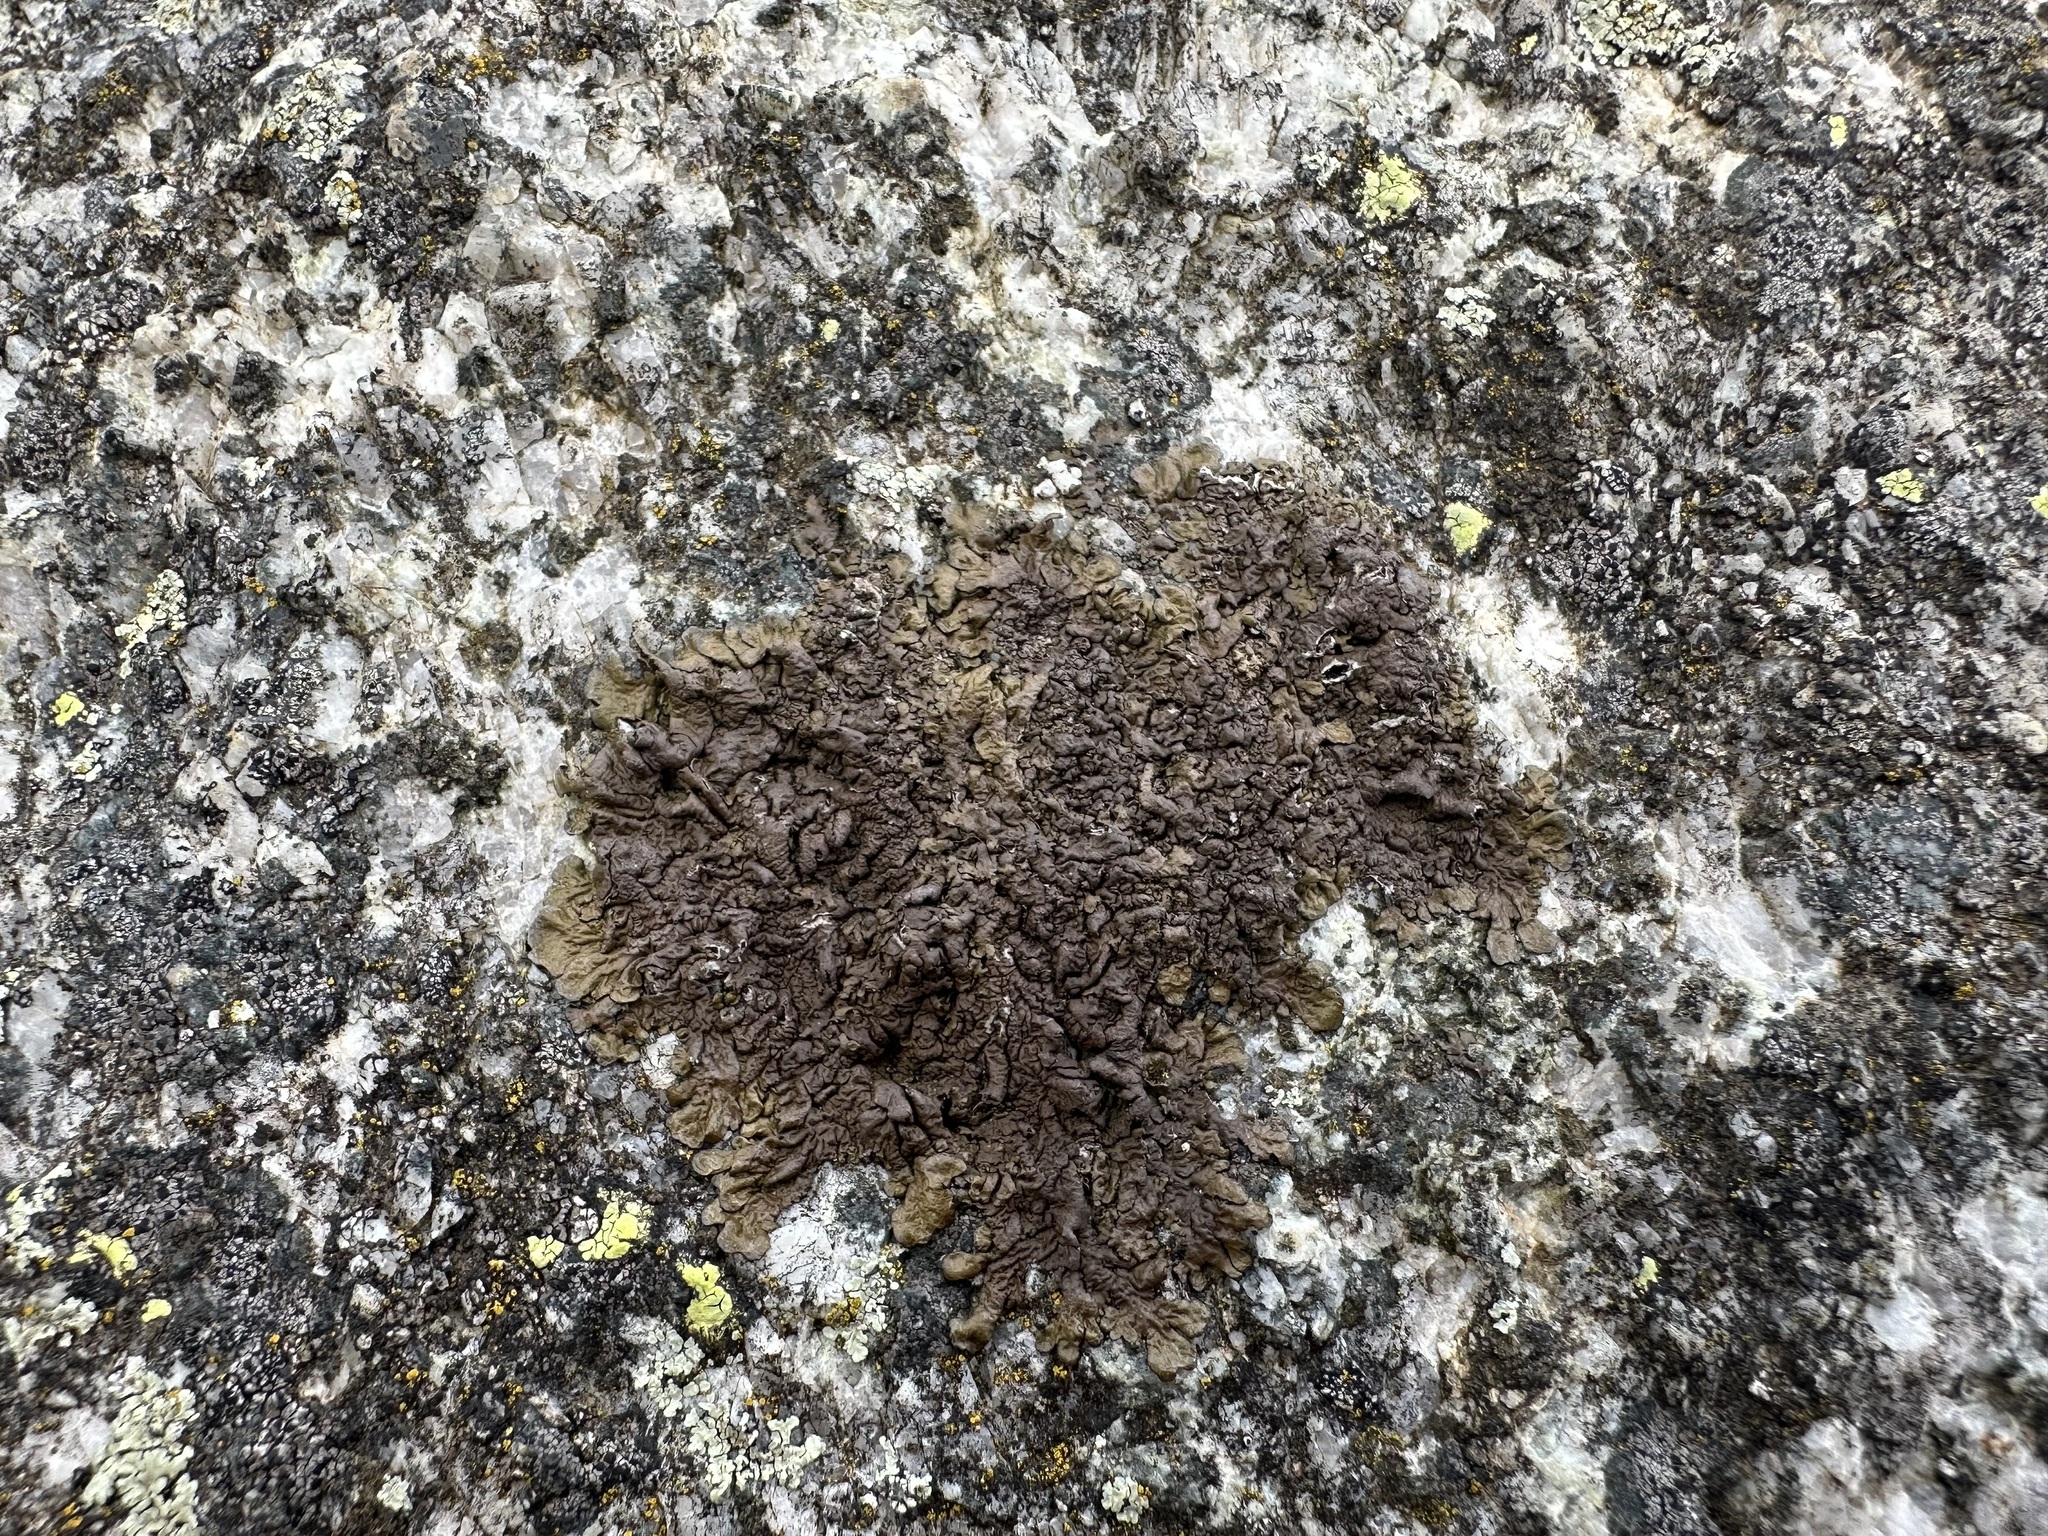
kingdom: Fungi
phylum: Ascomycota
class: Lecanoromycetes
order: Lecanorales
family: Parmeliaceae
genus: Xanthoparmelia
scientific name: Xanthoparmelia pulla
